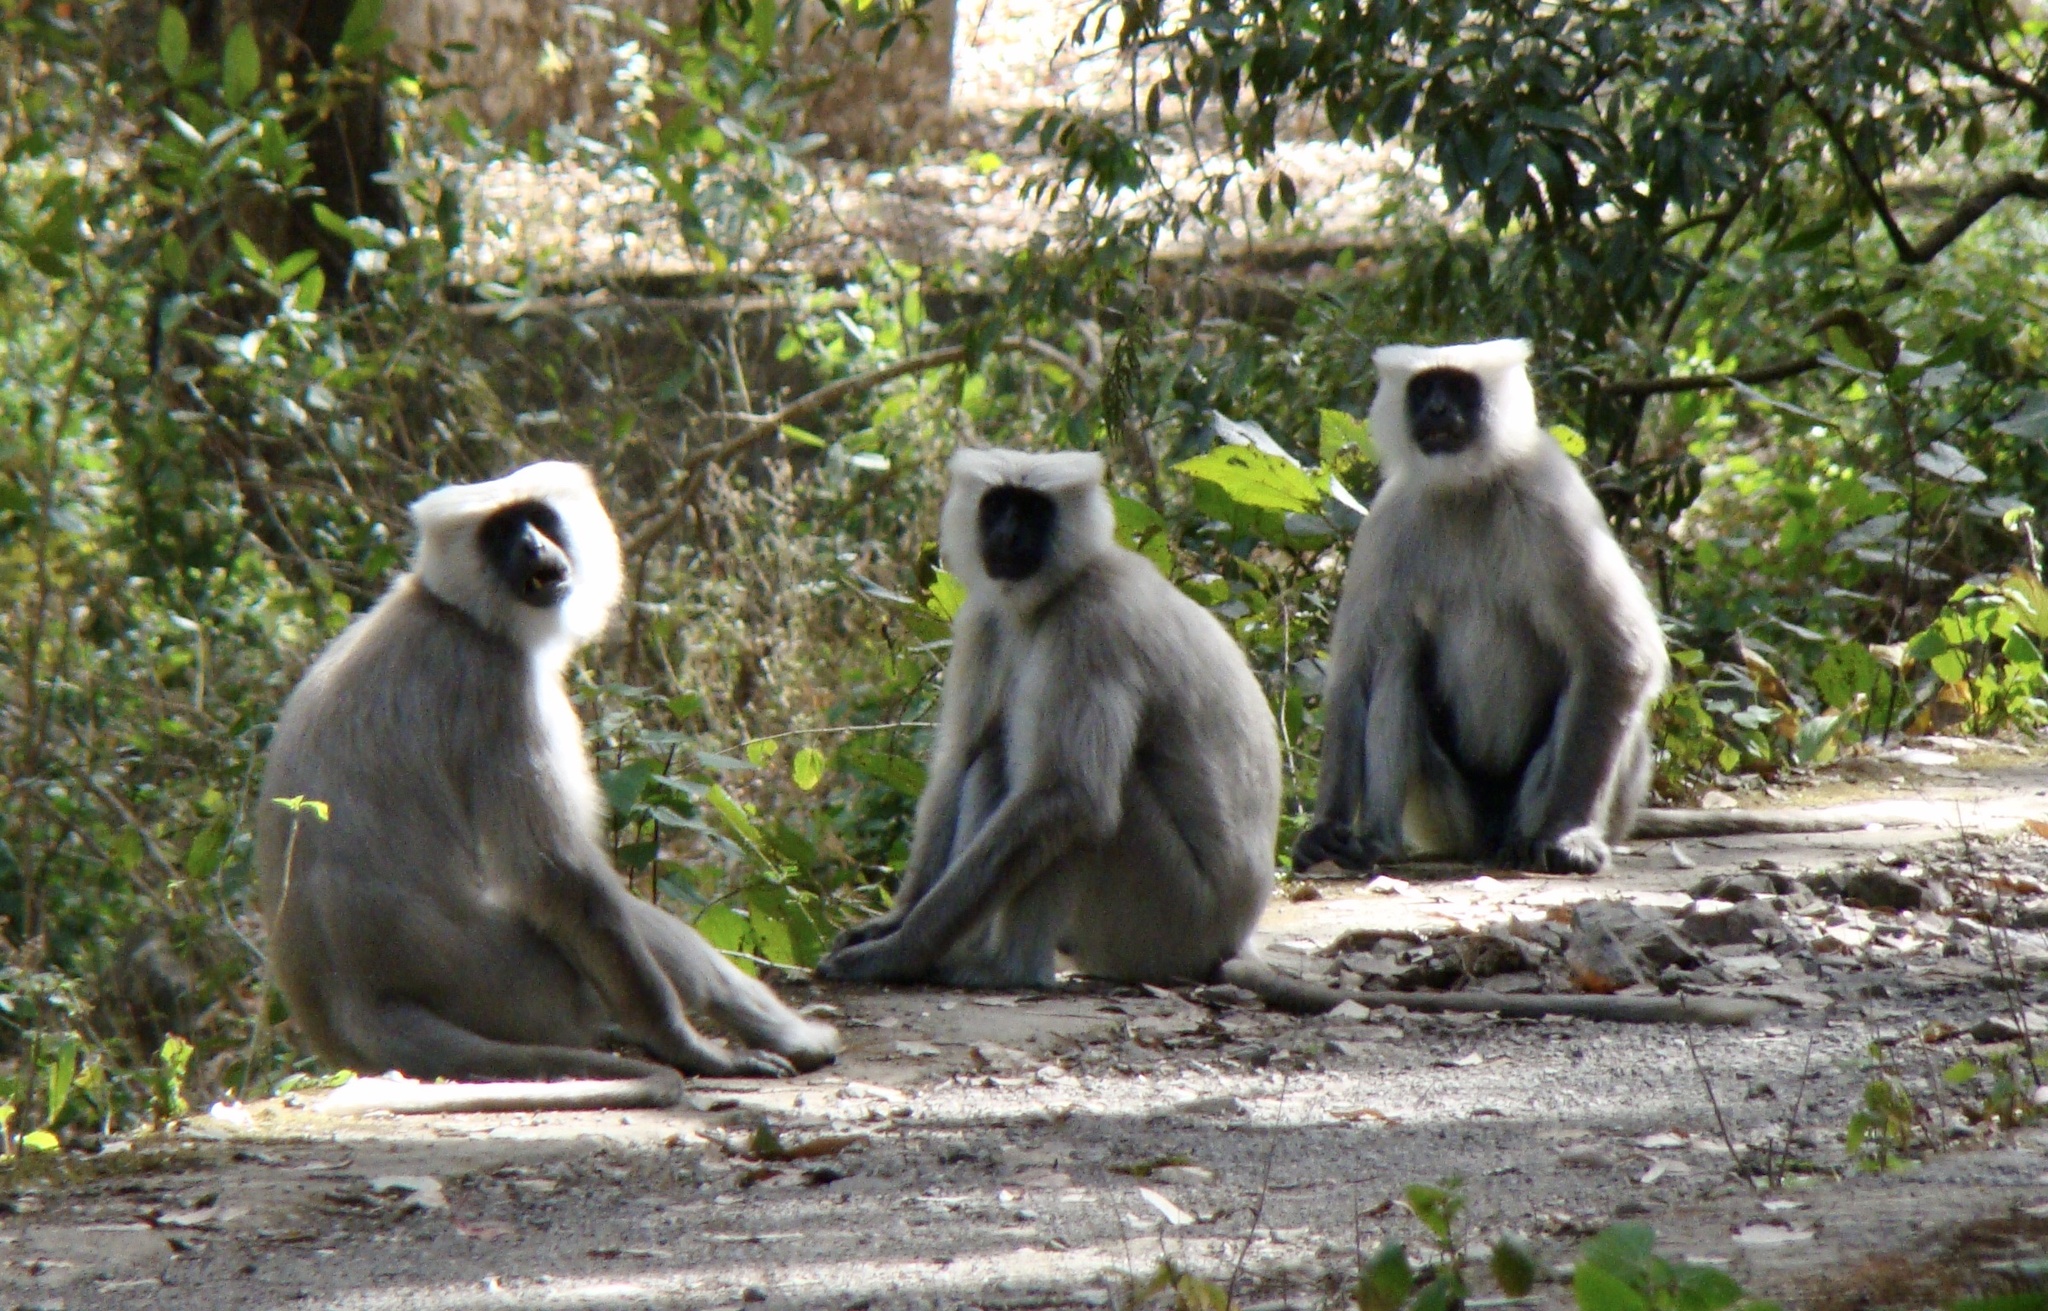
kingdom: Animalia
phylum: Chordata
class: Mammalia
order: Primates
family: Cercopithecidae
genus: Semnopithecus
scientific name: Semnopithecus schistaceus
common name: Nepal gray langur
